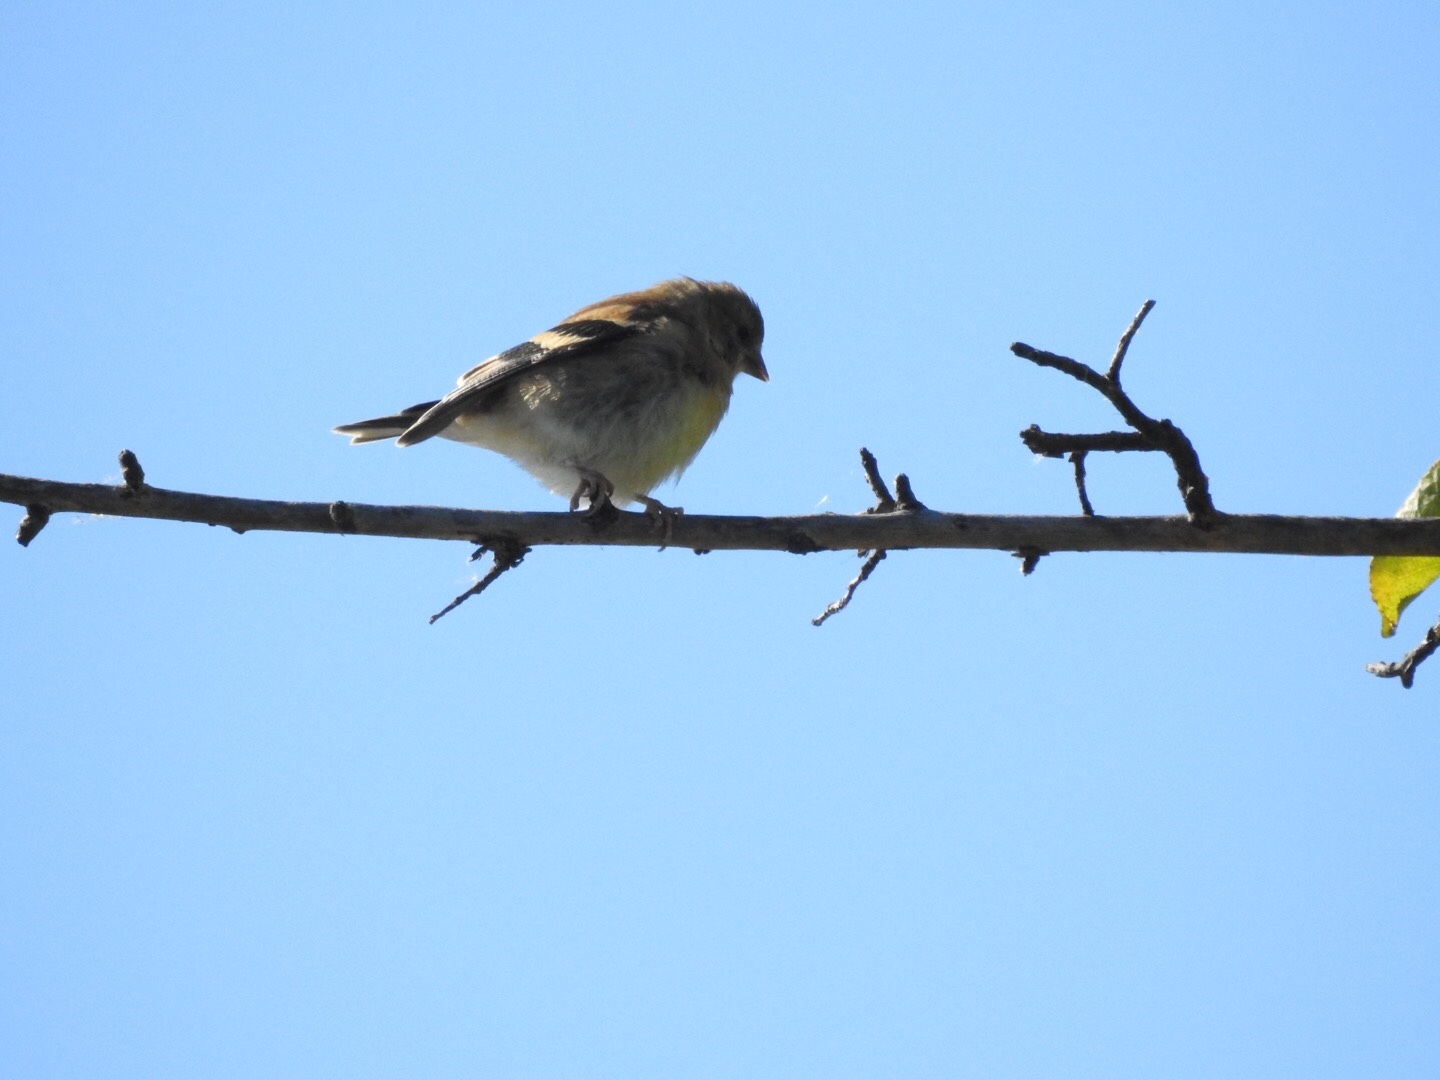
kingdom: Animalia
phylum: Chordata
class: Aves
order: Passeriformes
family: Fringillidae
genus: Spinus
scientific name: Spinus tristis
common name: American goldfinch
